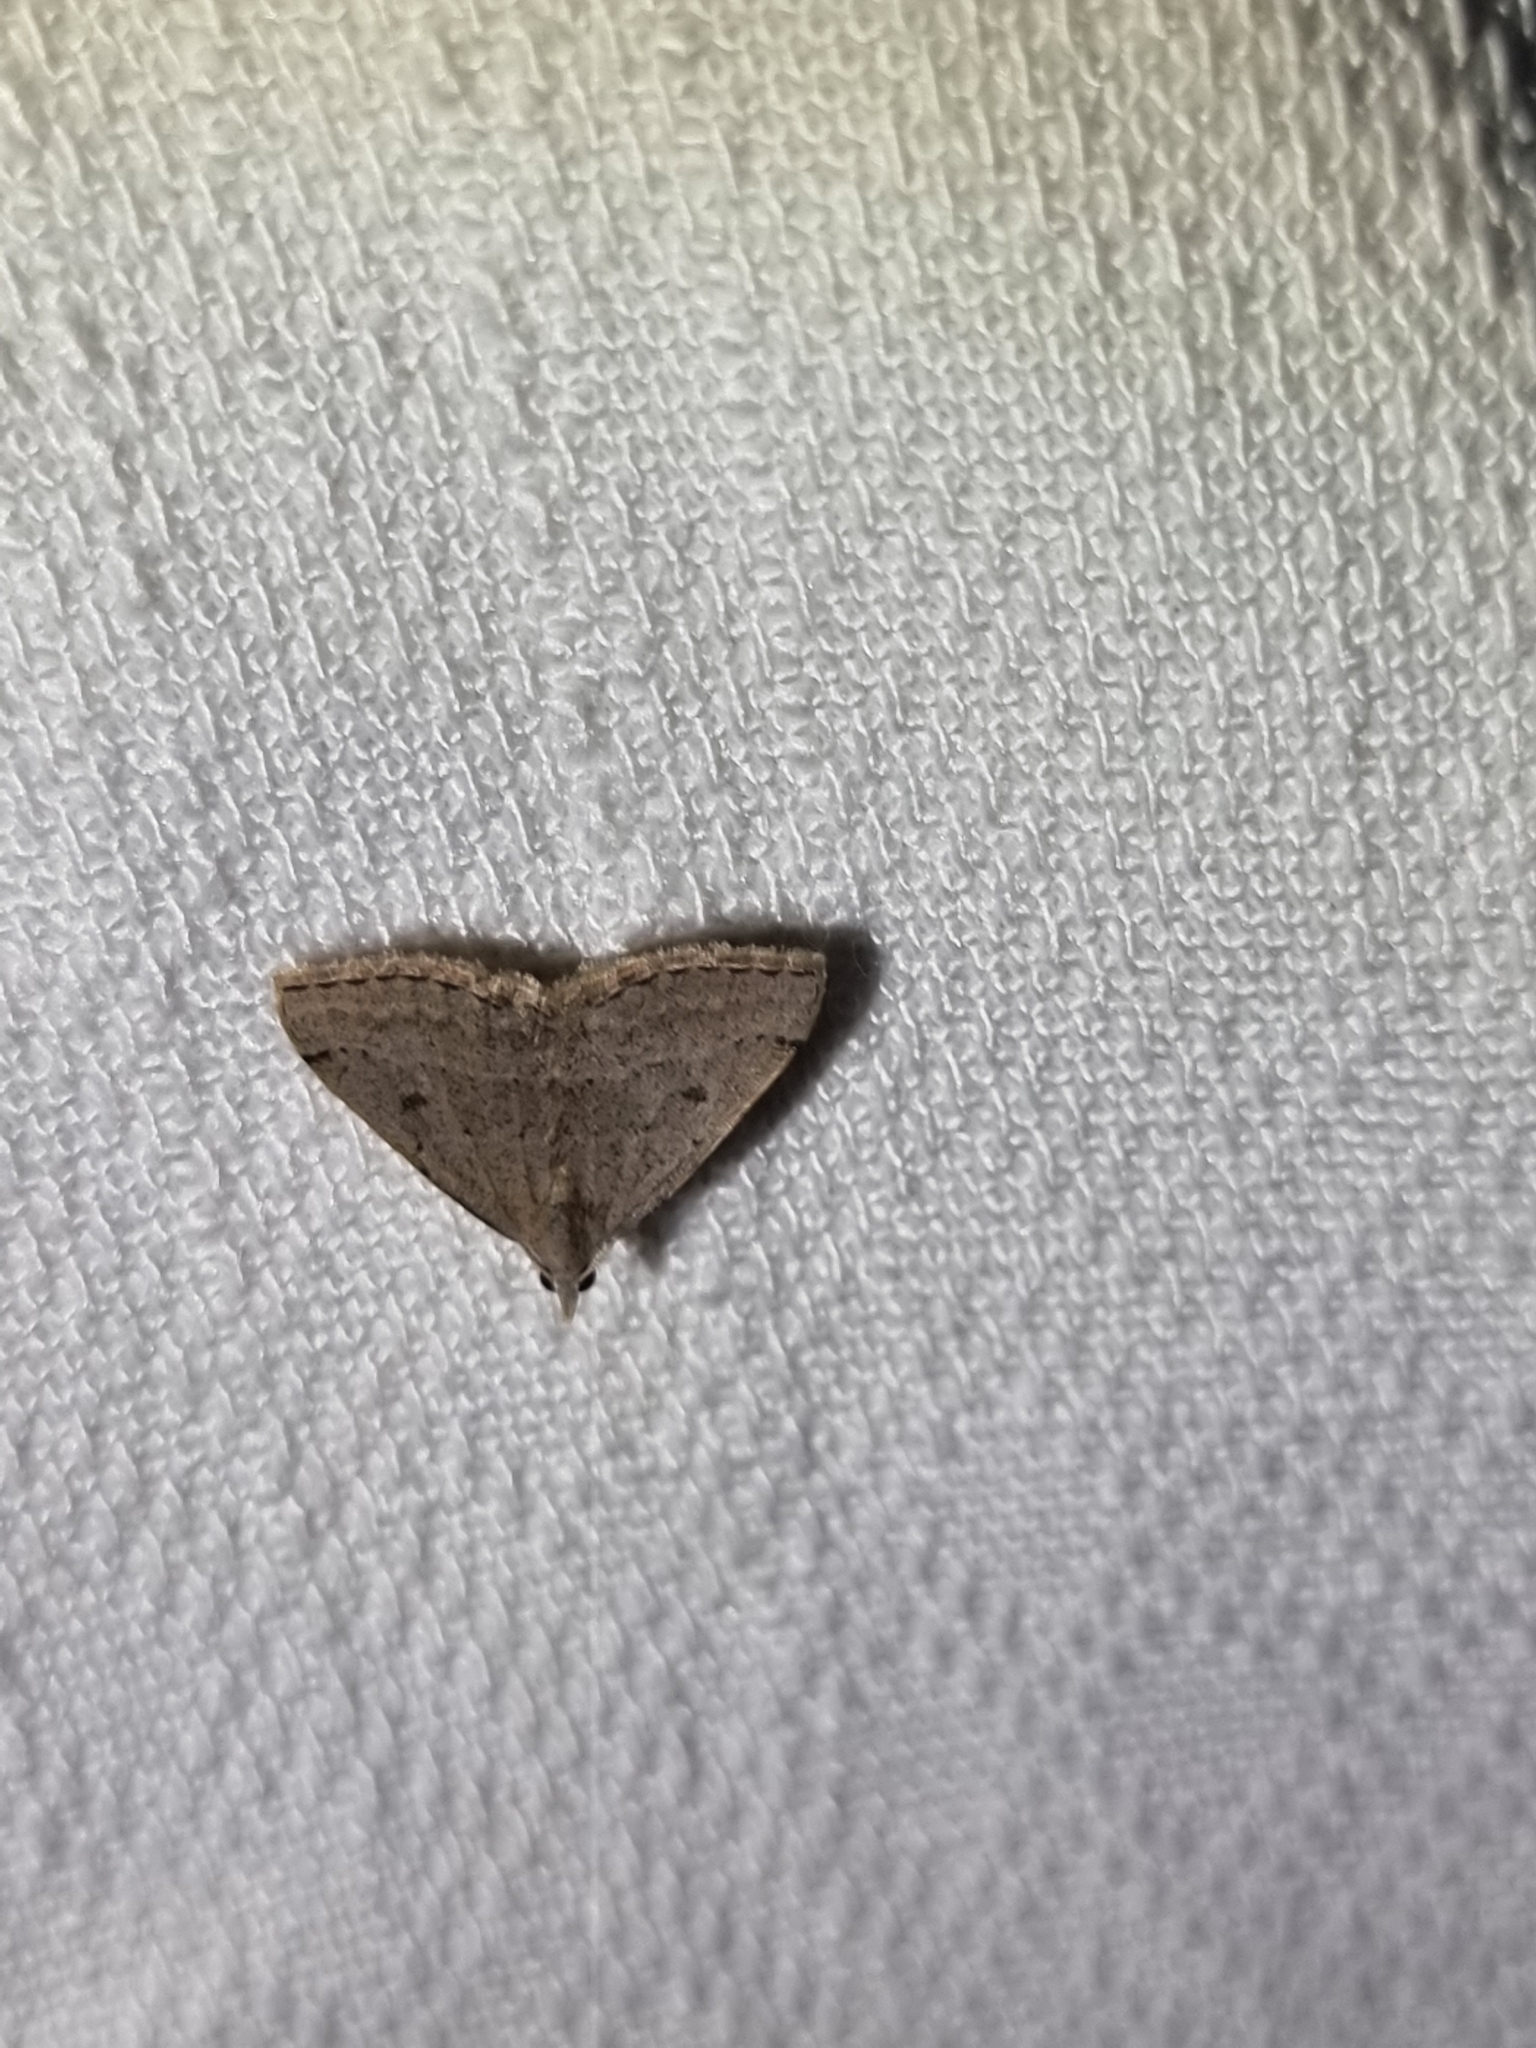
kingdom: Animalia
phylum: Arthropoda
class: Insecta
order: Lepidoptera
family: Geometridae
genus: Dichromodes
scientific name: Dichromodes usurpatrix
